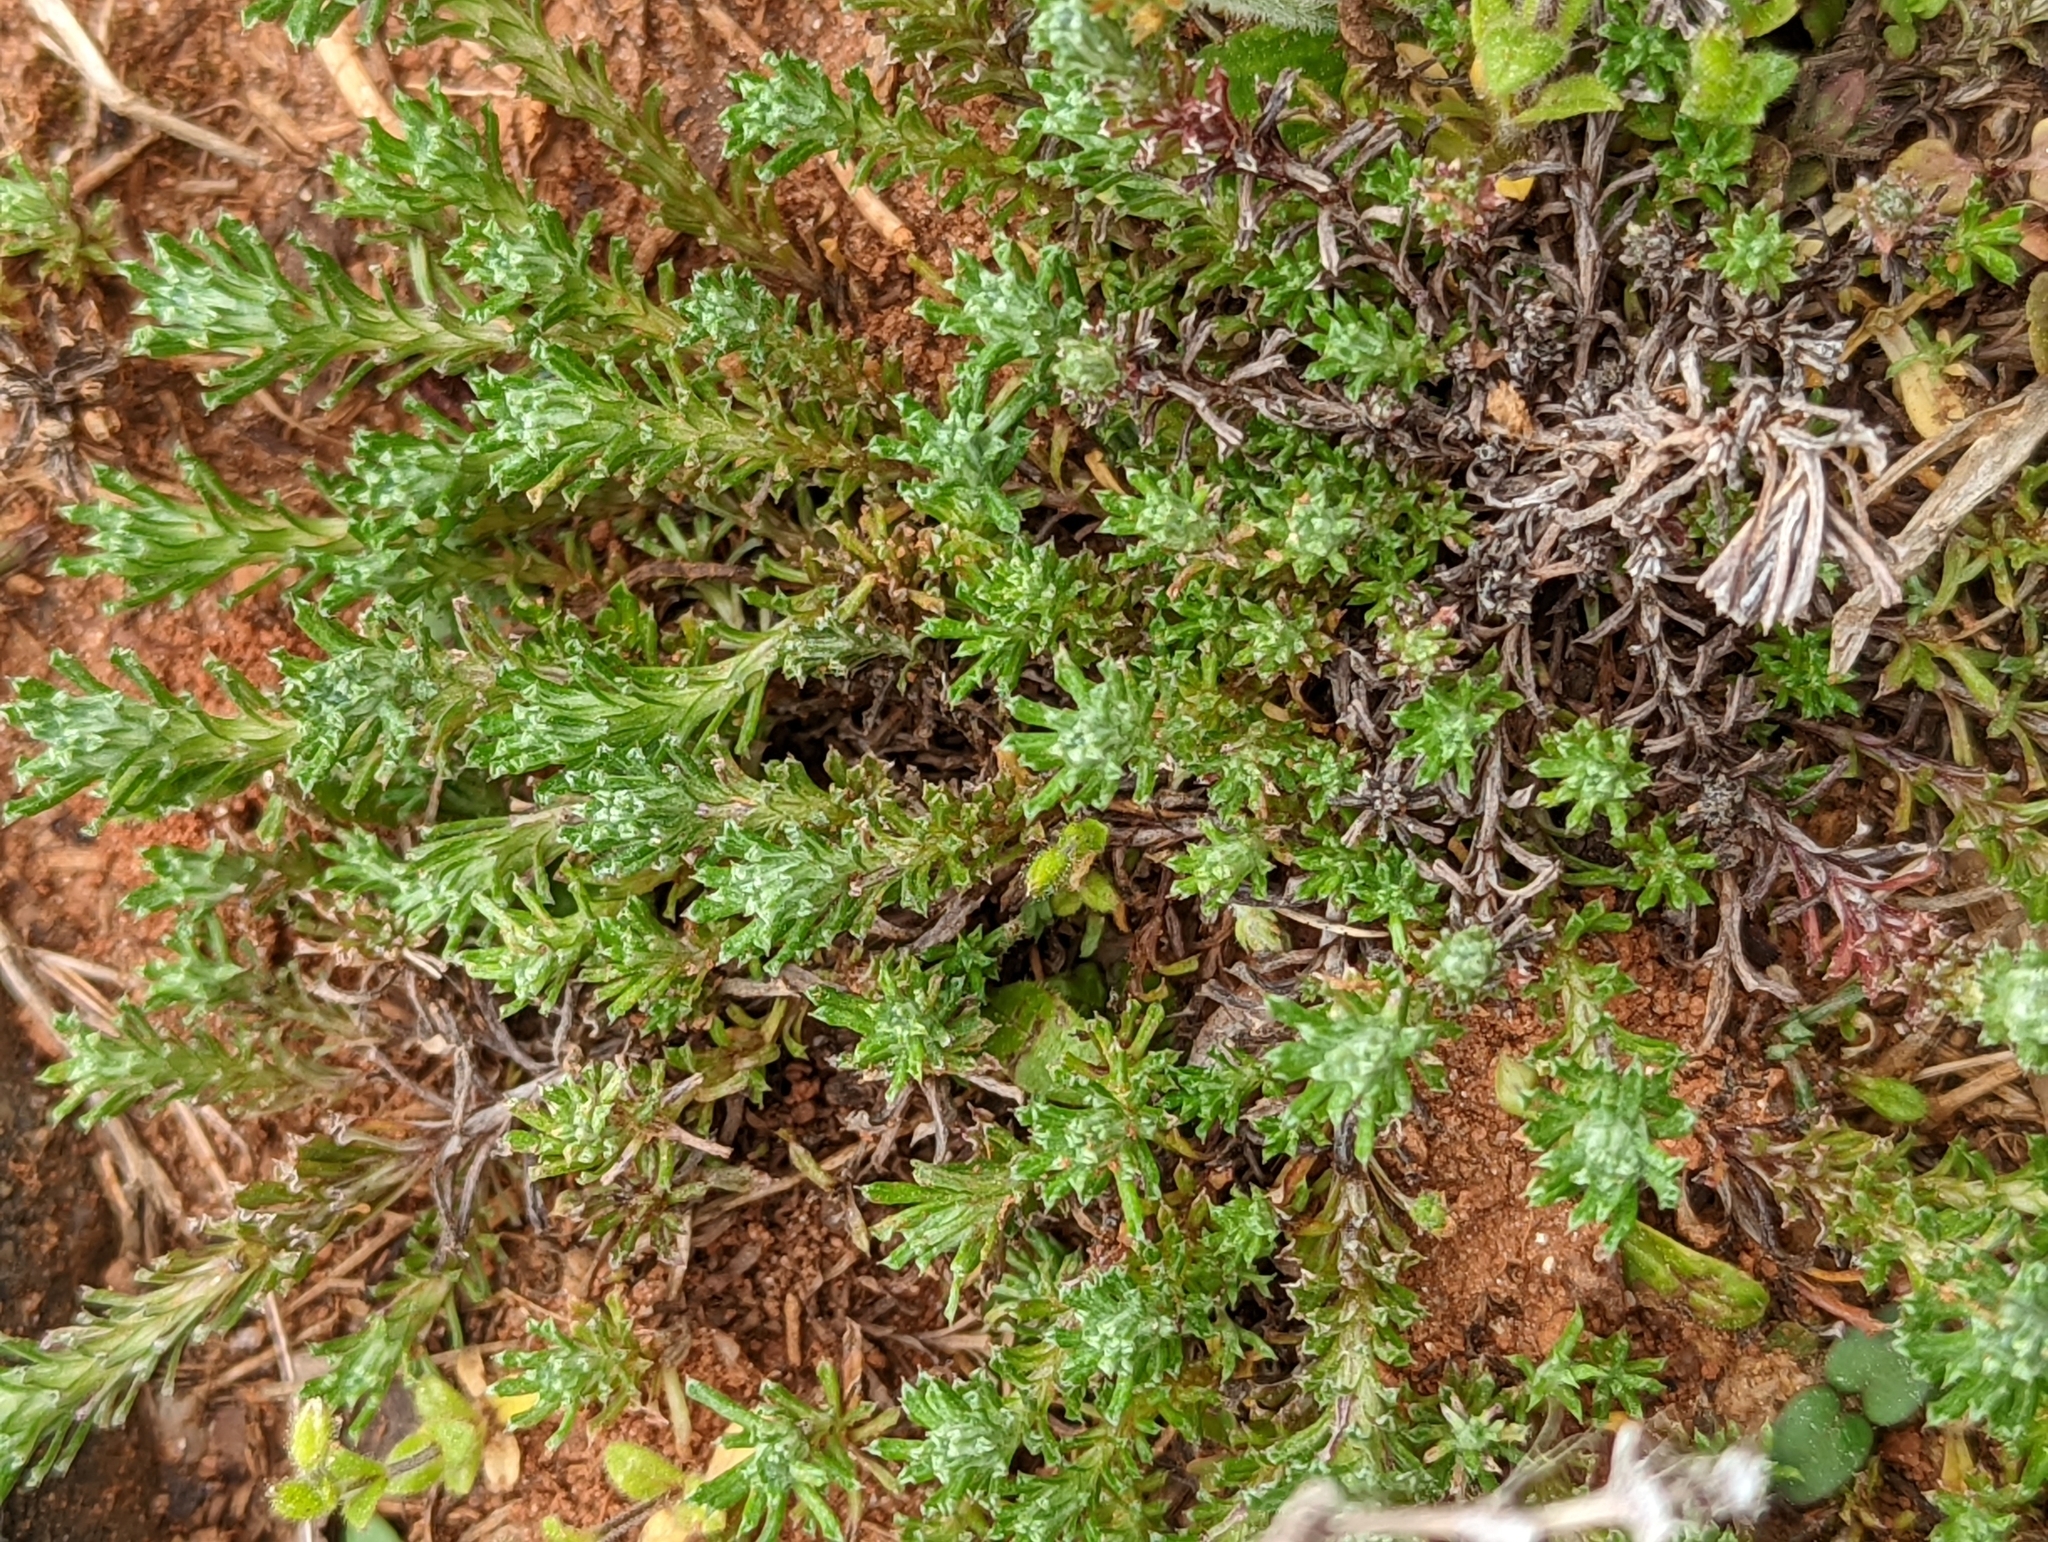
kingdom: Plantae
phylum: Tracheophyta
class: Magnoliopsida
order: Asterales
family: Asteraceae
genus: Facelis
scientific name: Facelis retusa
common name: Annual trampweed
